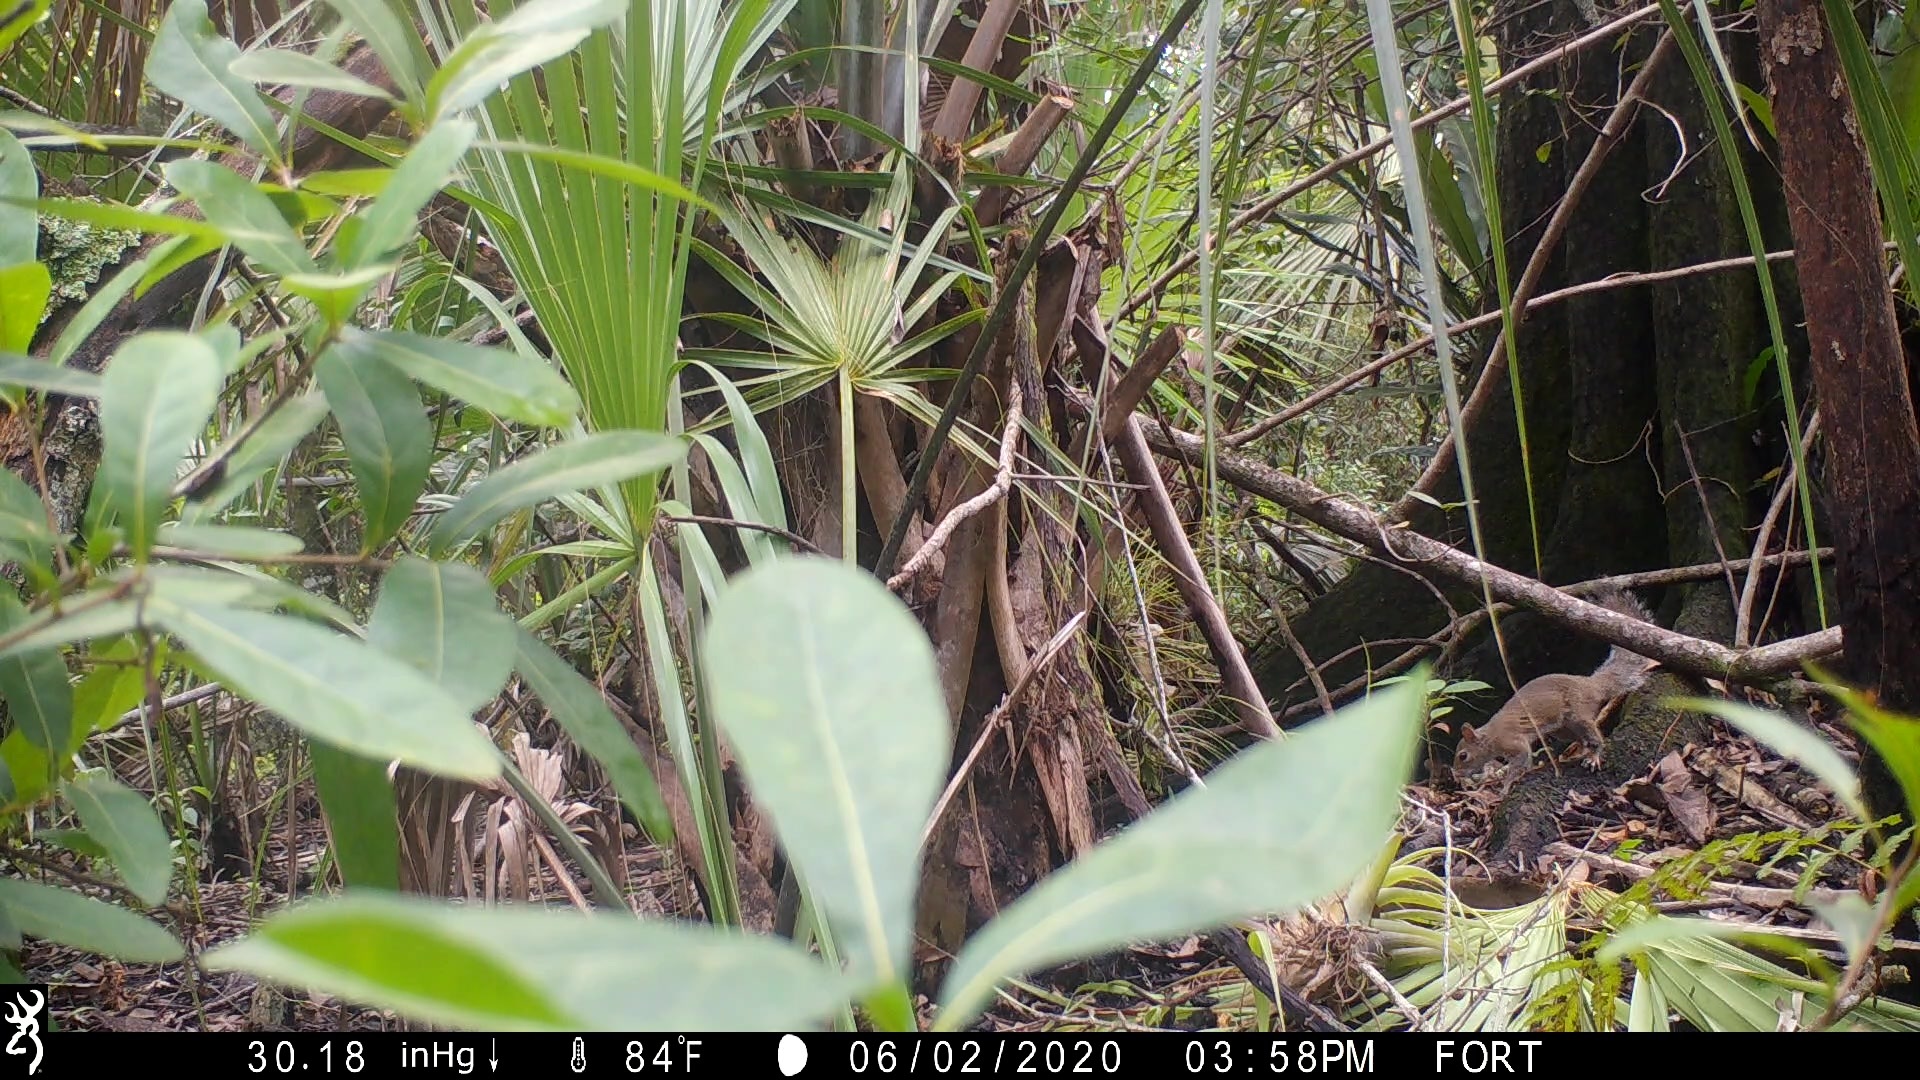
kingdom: Animalia
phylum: Chordata
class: Mammalia
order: Rodentia
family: Sciuridae
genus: Sciurus
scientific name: Sciurus carolinensis
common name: Eastern gray squirrel
